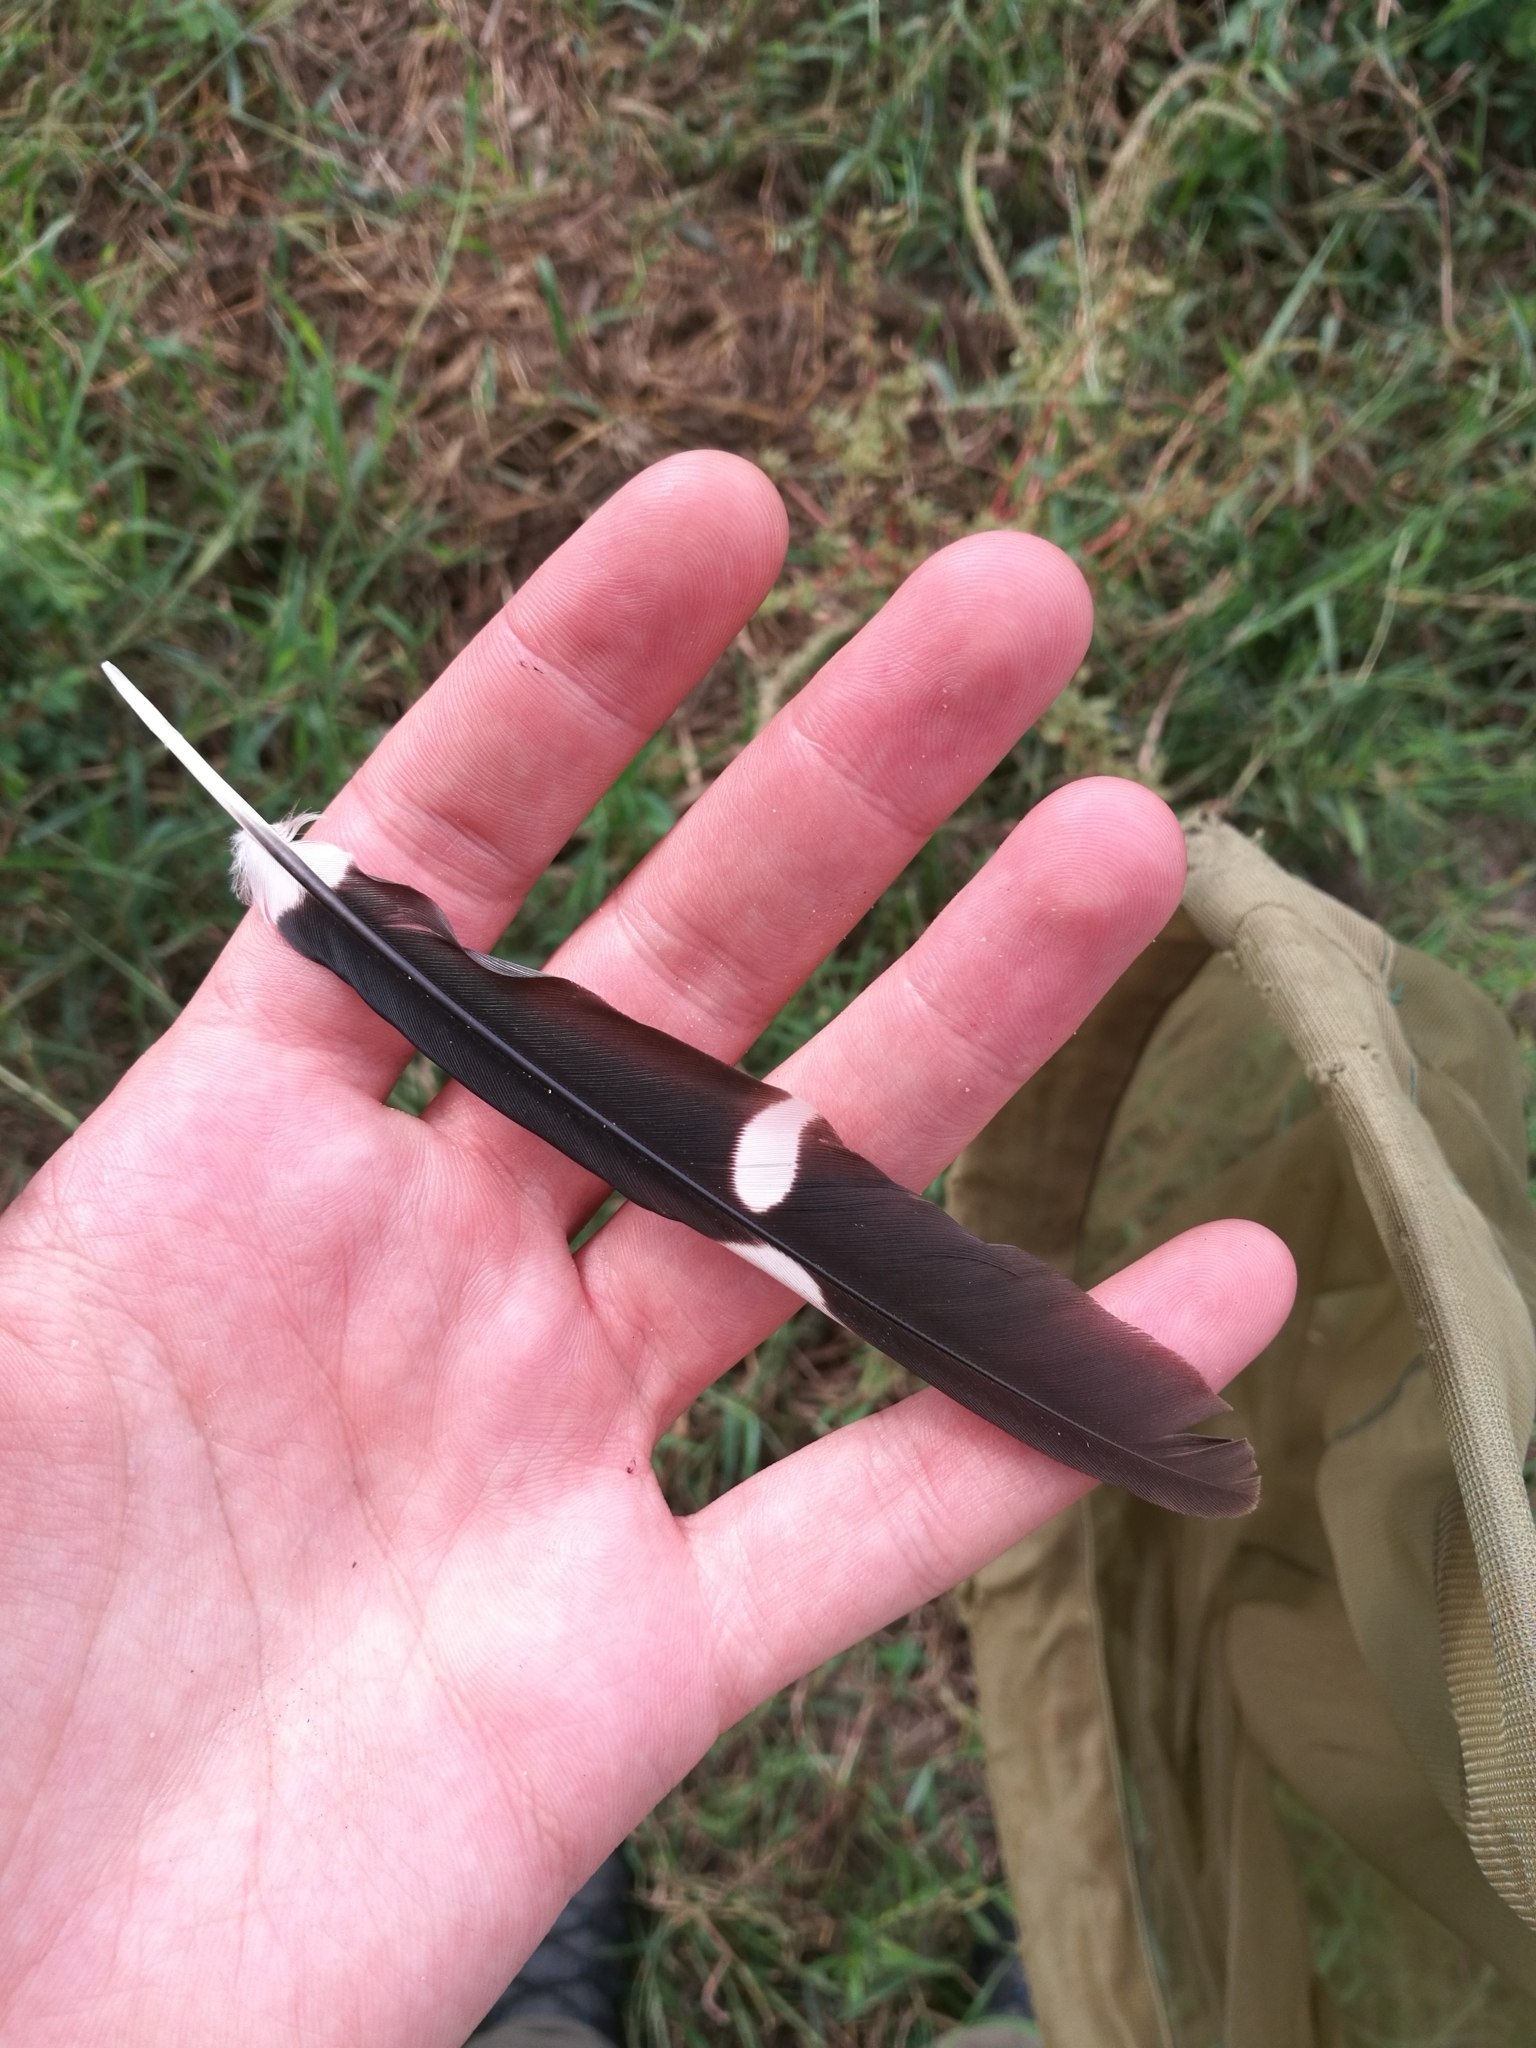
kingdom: Animalia
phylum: Chordata
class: Aves
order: Bucerotiformes
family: Bucerotidae
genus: Tockus
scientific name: Tockus kempi
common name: Western red-billed hornbill
